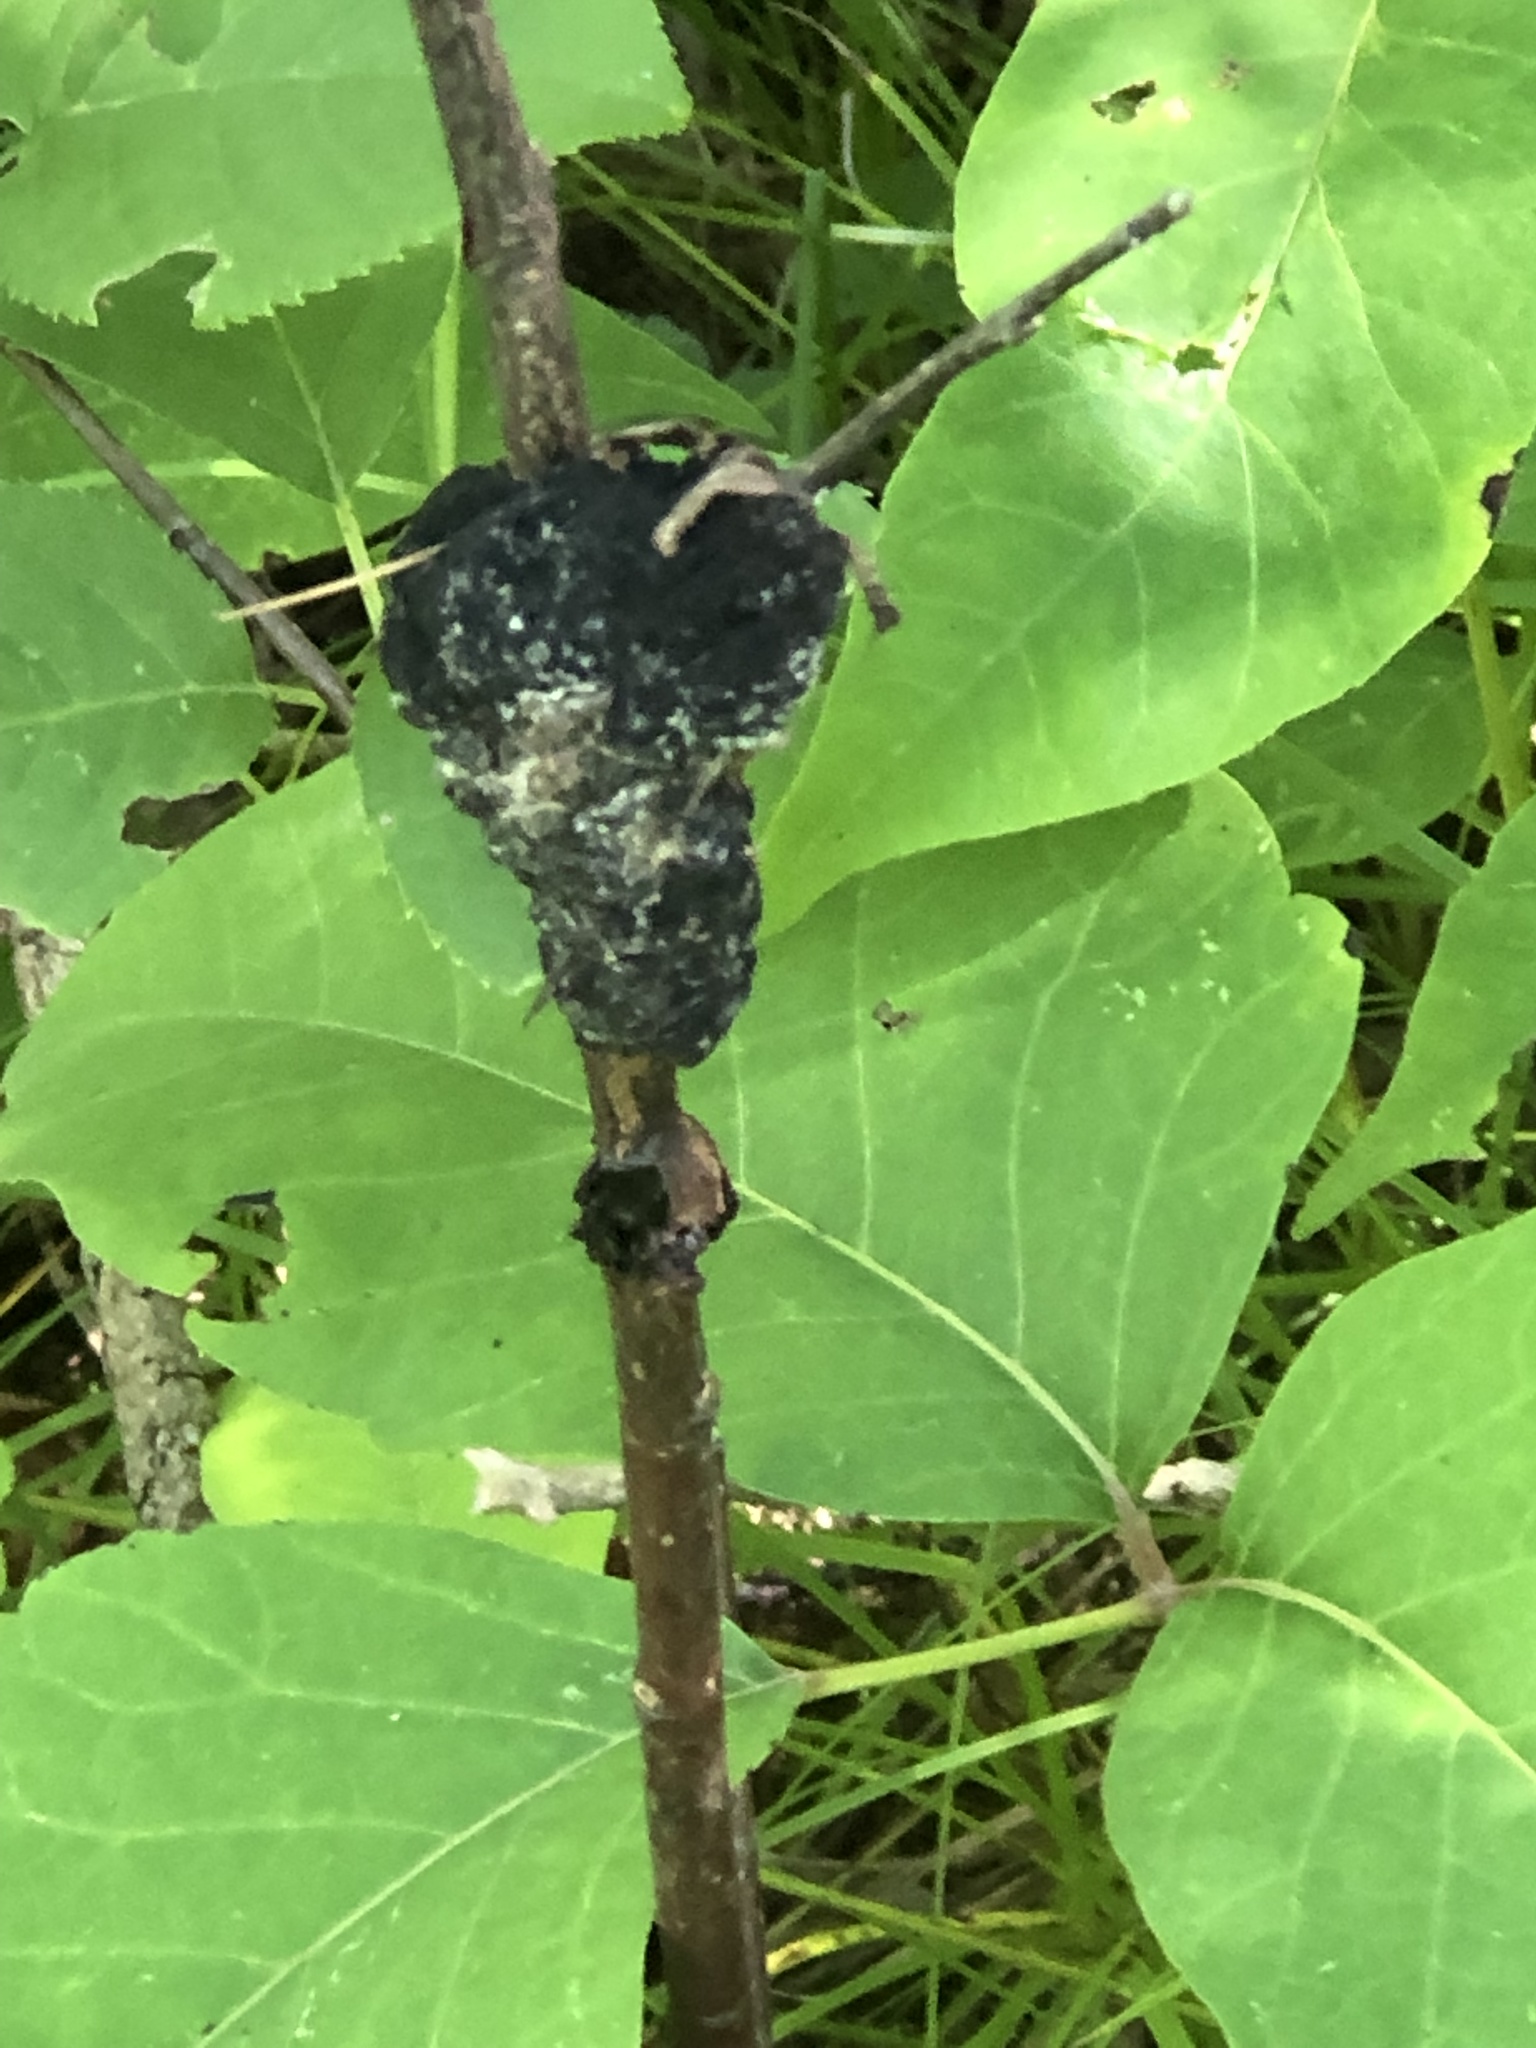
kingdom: Fungi
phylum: Ascomycota
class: Dothideomycetes
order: Venturiales
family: Venturiaceae
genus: Apiosporina
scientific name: Apiosporina morbosa
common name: Black knot
